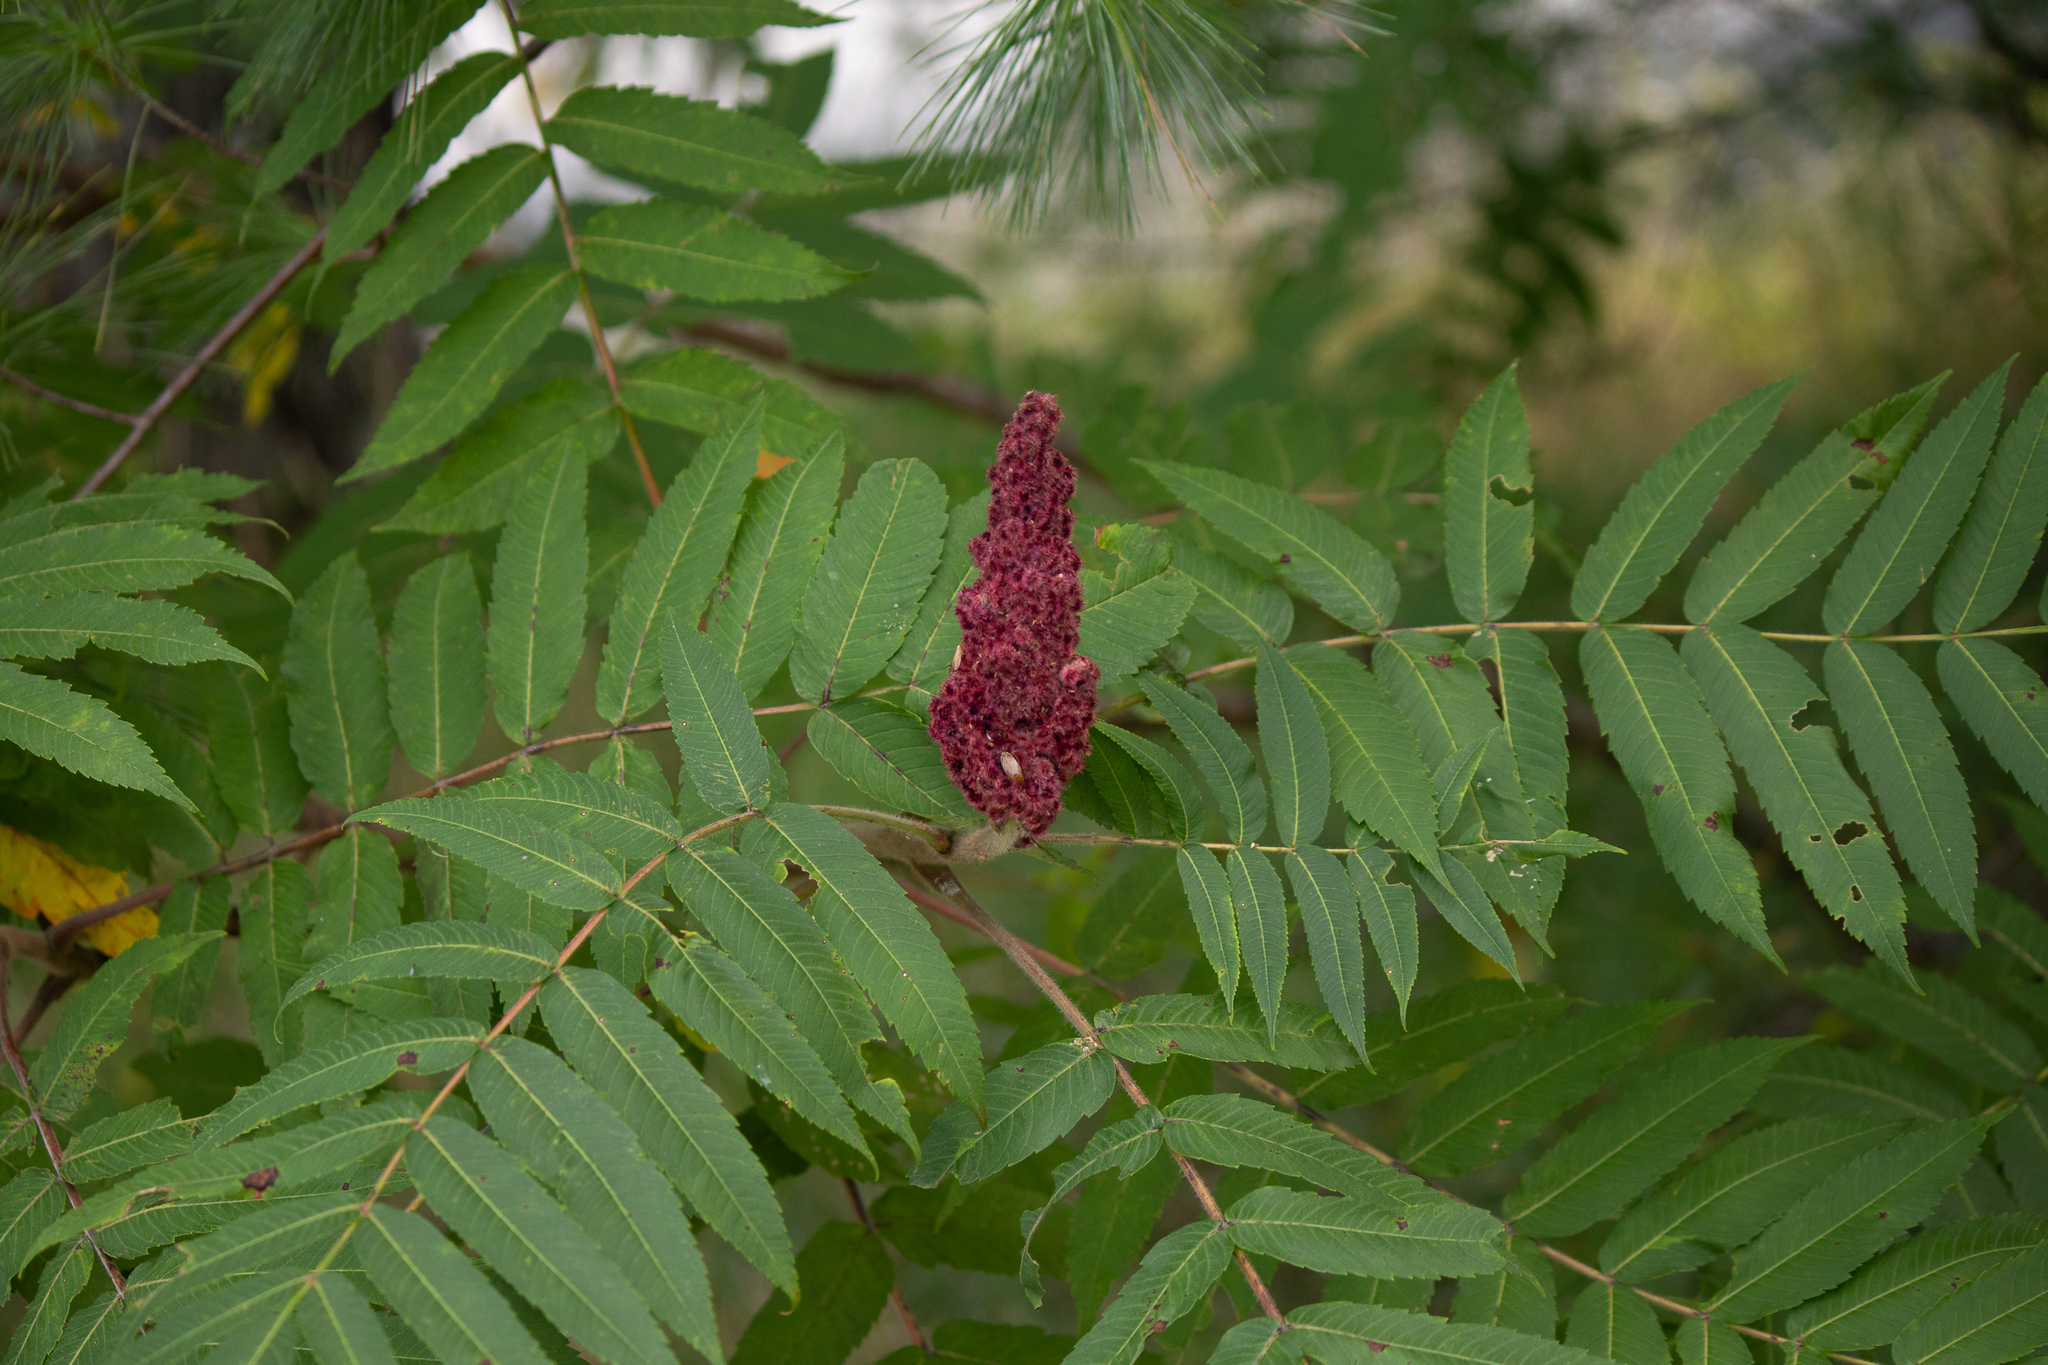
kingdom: Plantae
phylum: Tracheophyta
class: Magnoliopsida
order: Sapindales
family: Anacardiaceae
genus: Rhus
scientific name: Rhus typhina
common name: Staghorn sumac
